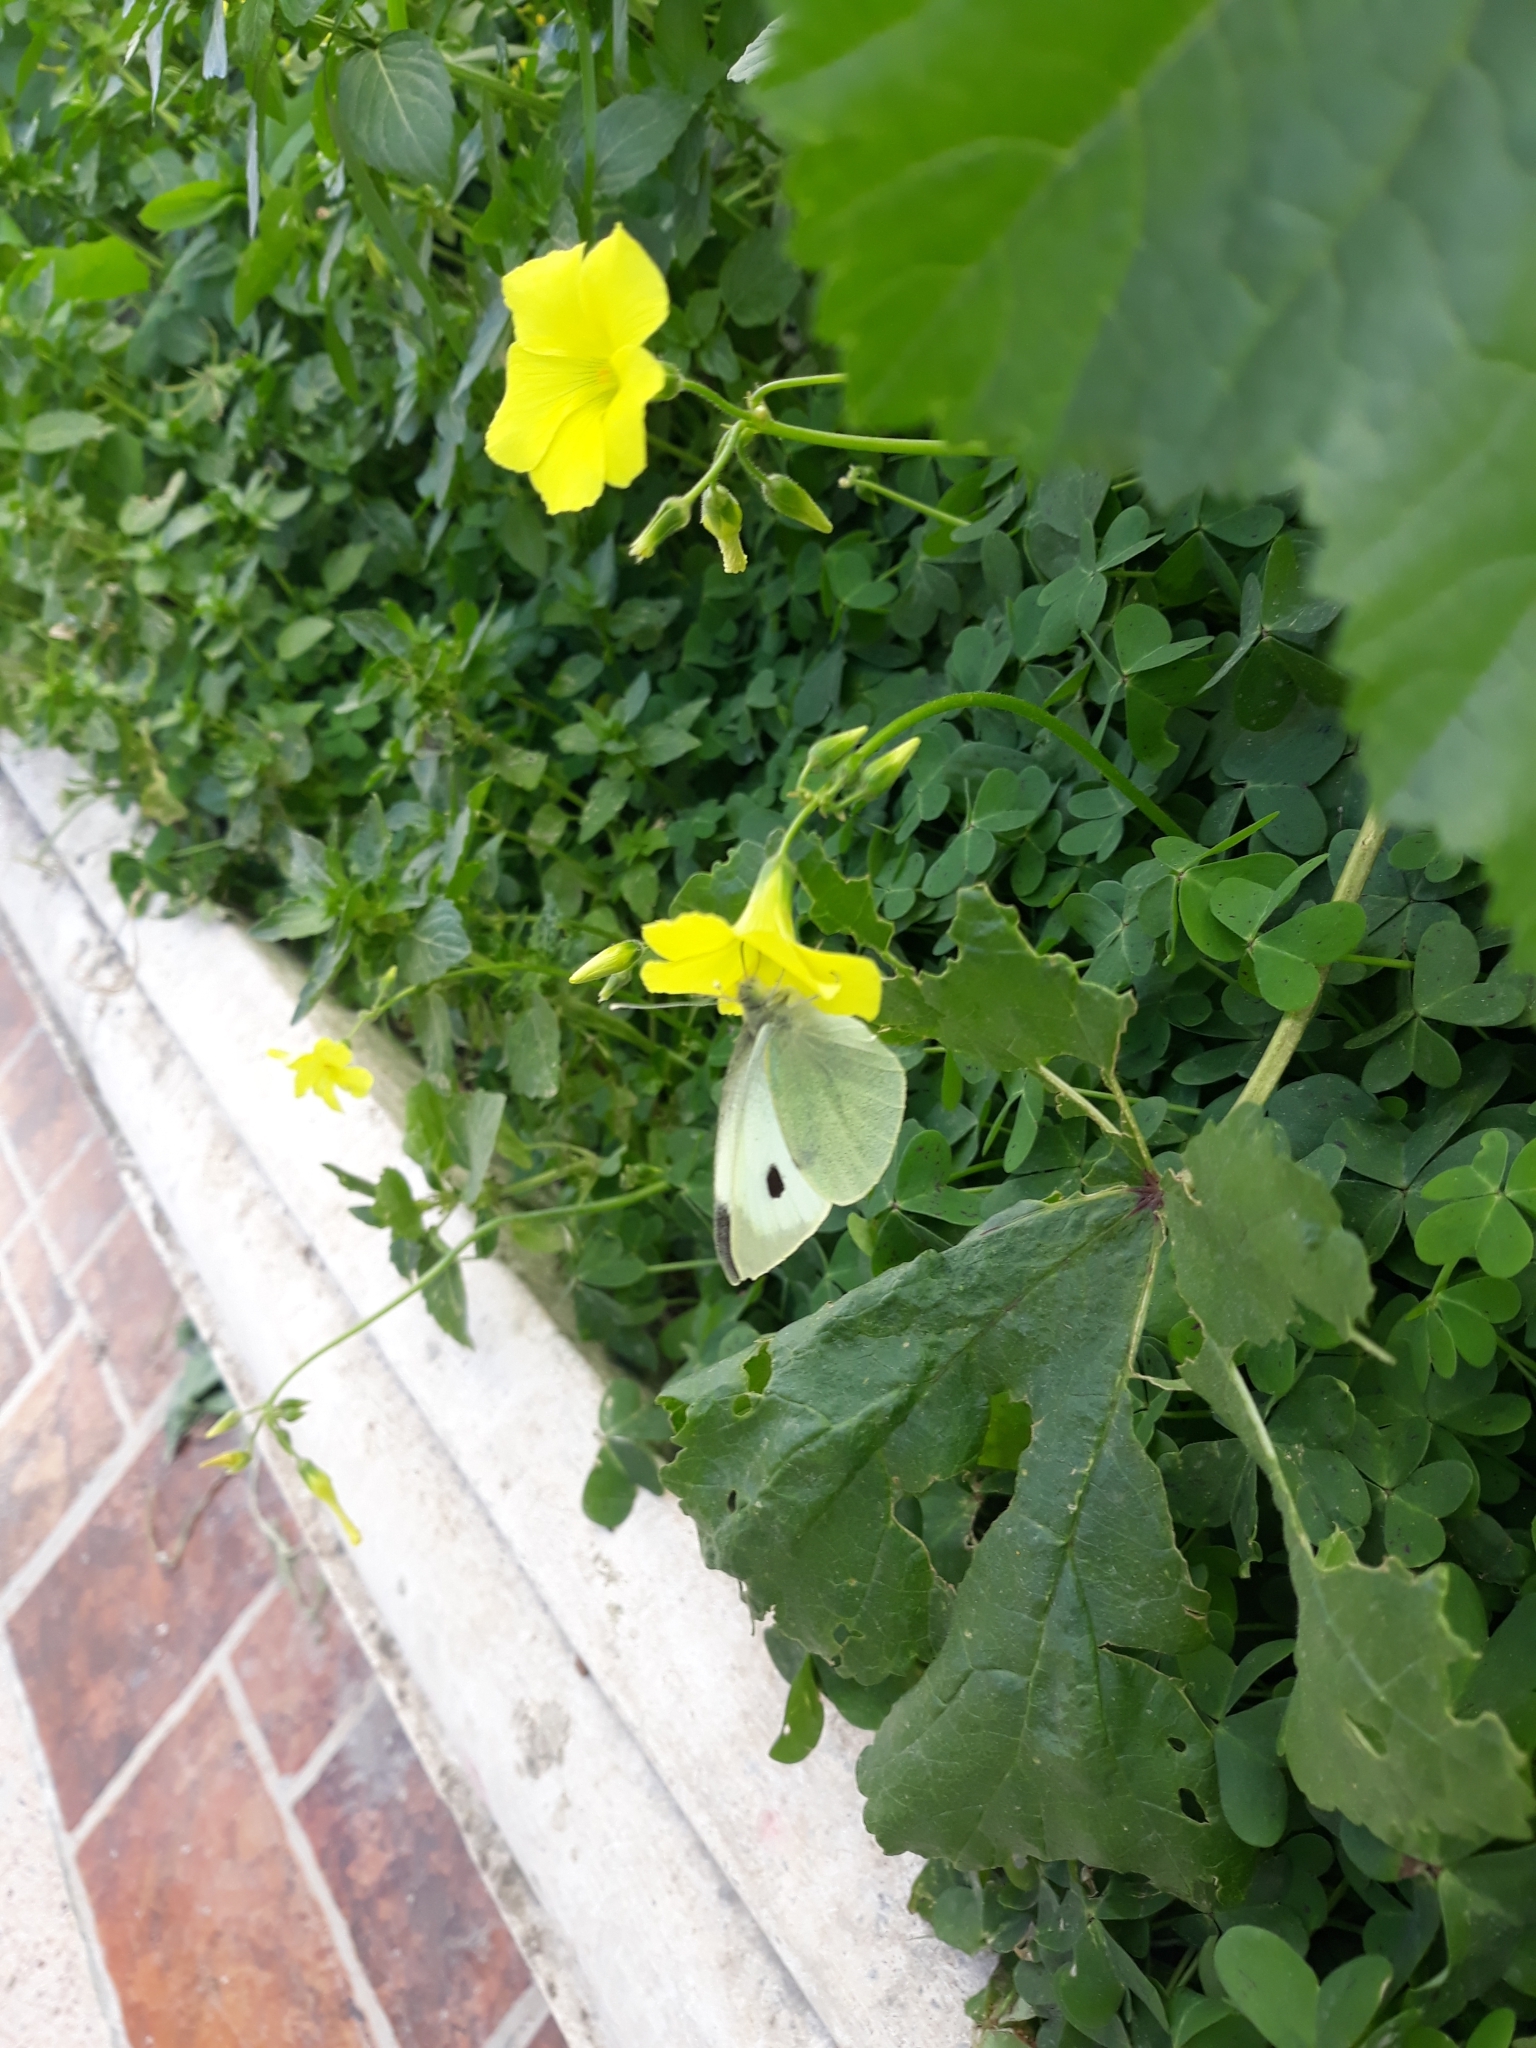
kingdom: Plantae
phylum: Tracheophyta
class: Magnoliopsida
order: Oxalidales
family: Oxalidaceae
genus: Oxalis
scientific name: Oxalis pes-caprae
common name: Bermuda-buttercup
